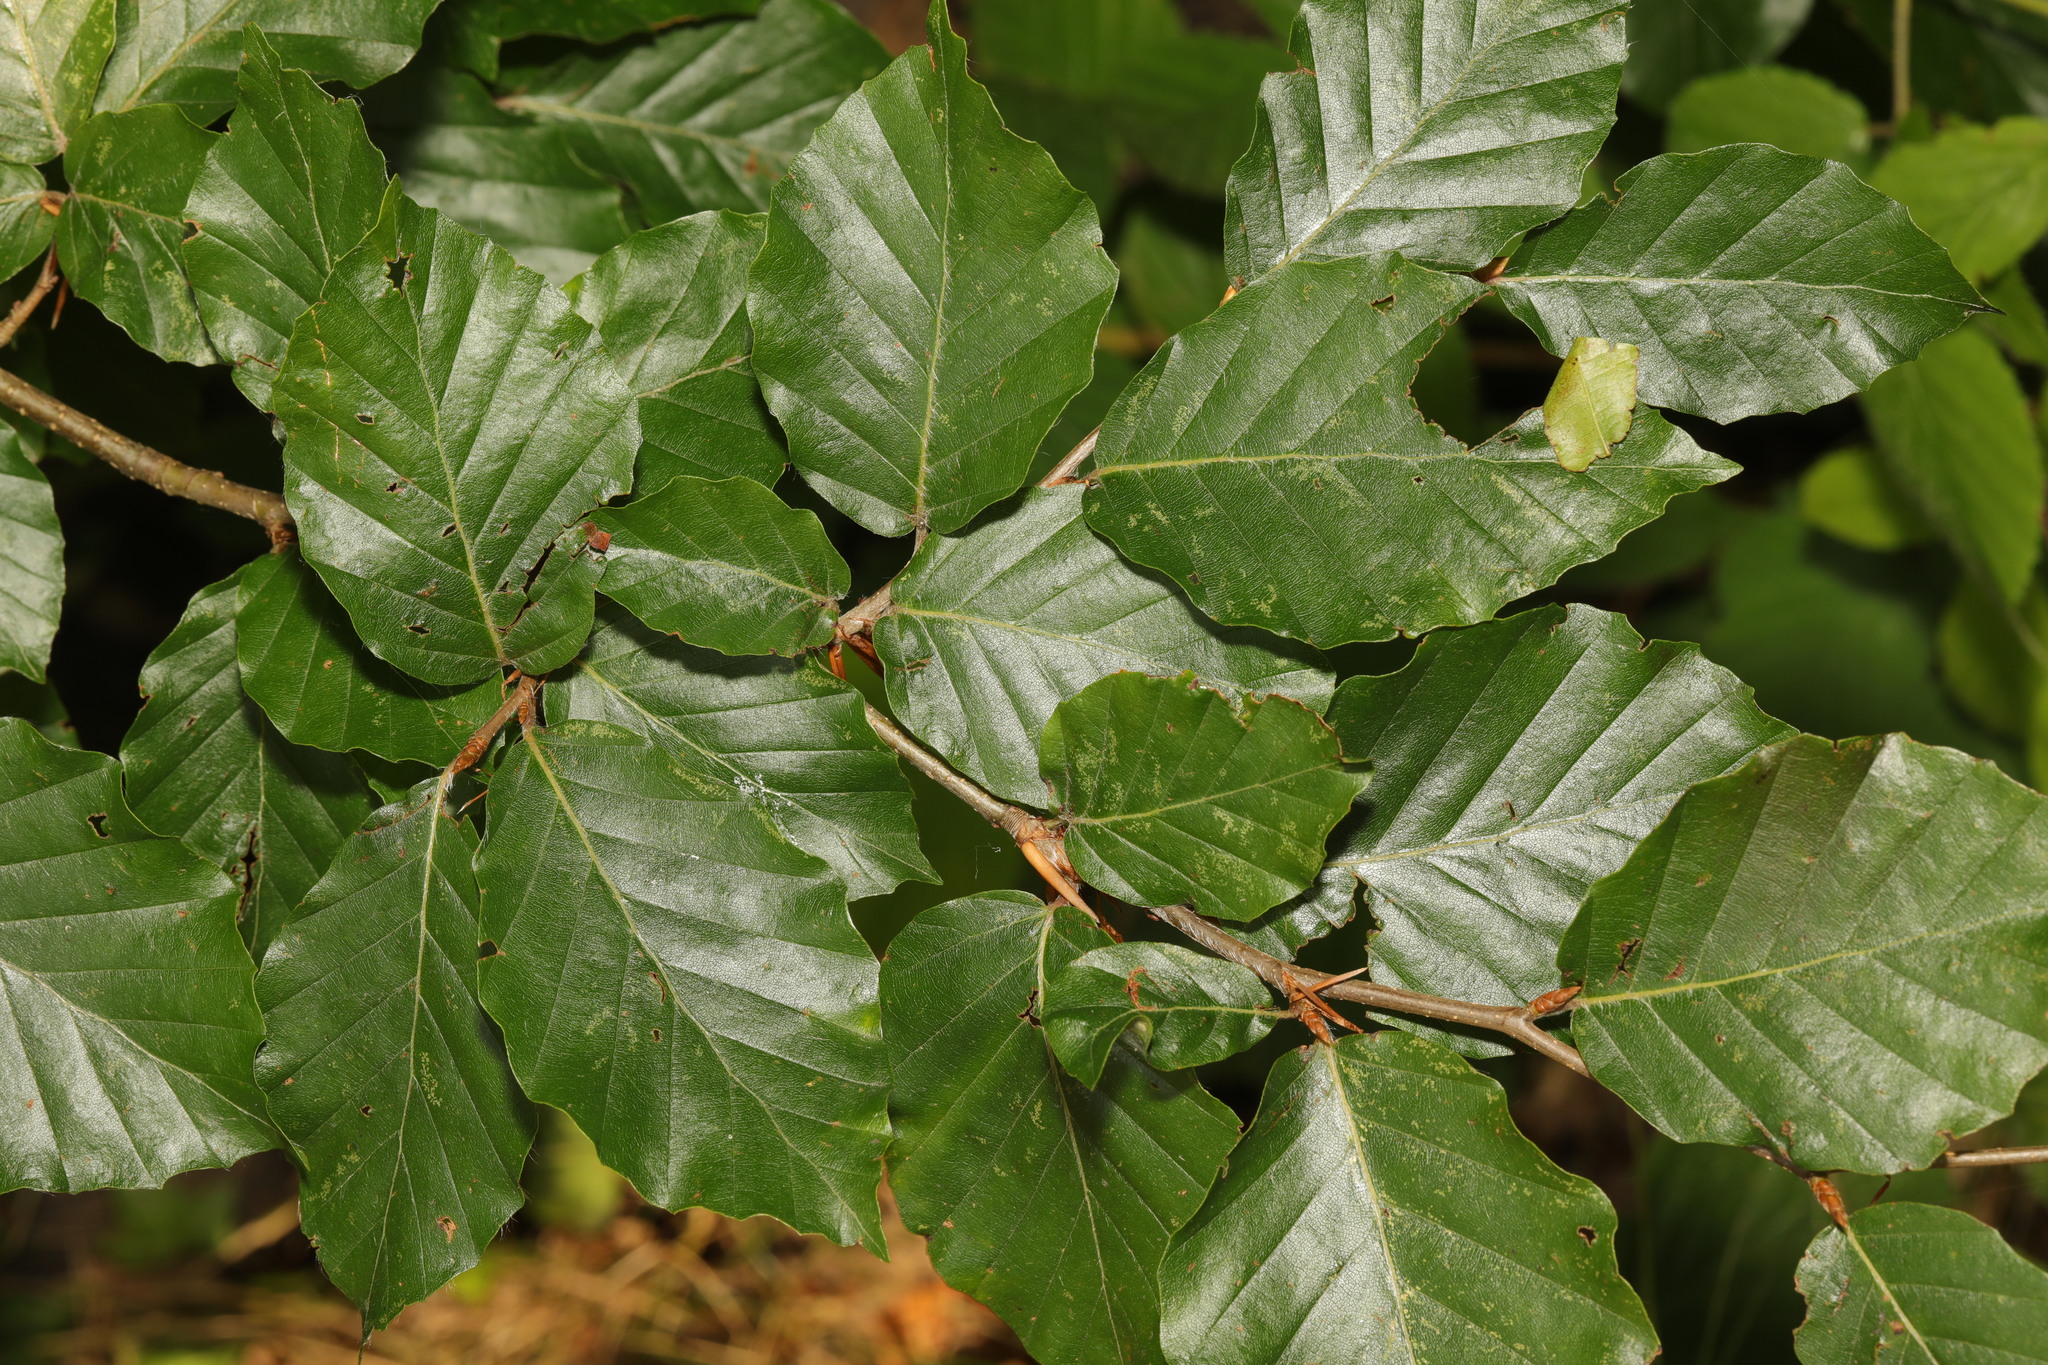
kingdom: Plantae
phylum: Tracheophyta
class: Magnoliopsida
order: Fagales
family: Fagaceae
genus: Fagus
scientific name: Fagus sylvatica
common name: Beech
